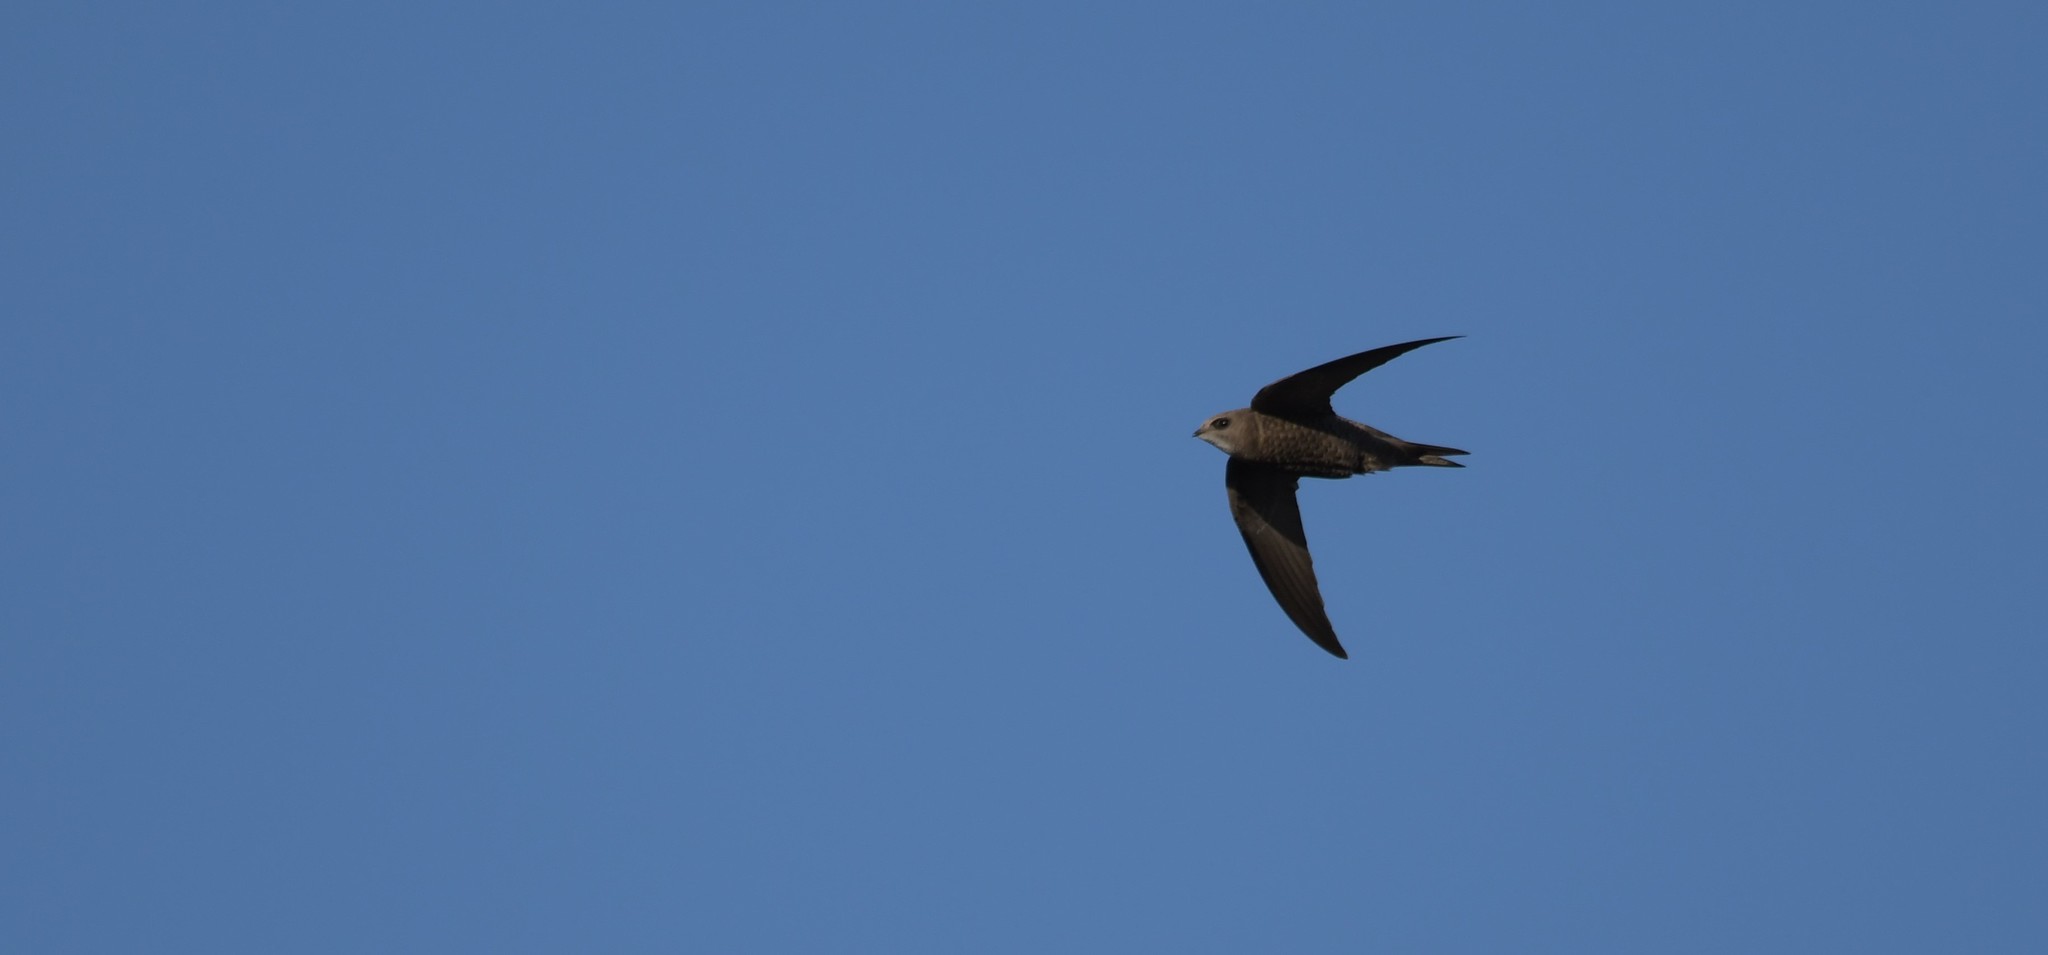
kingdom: Animalia
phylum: Chordata
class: Aves
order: Apodiformes
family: Apodidae
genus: Apus
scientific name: Apus pallidus
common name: Pallid swift
